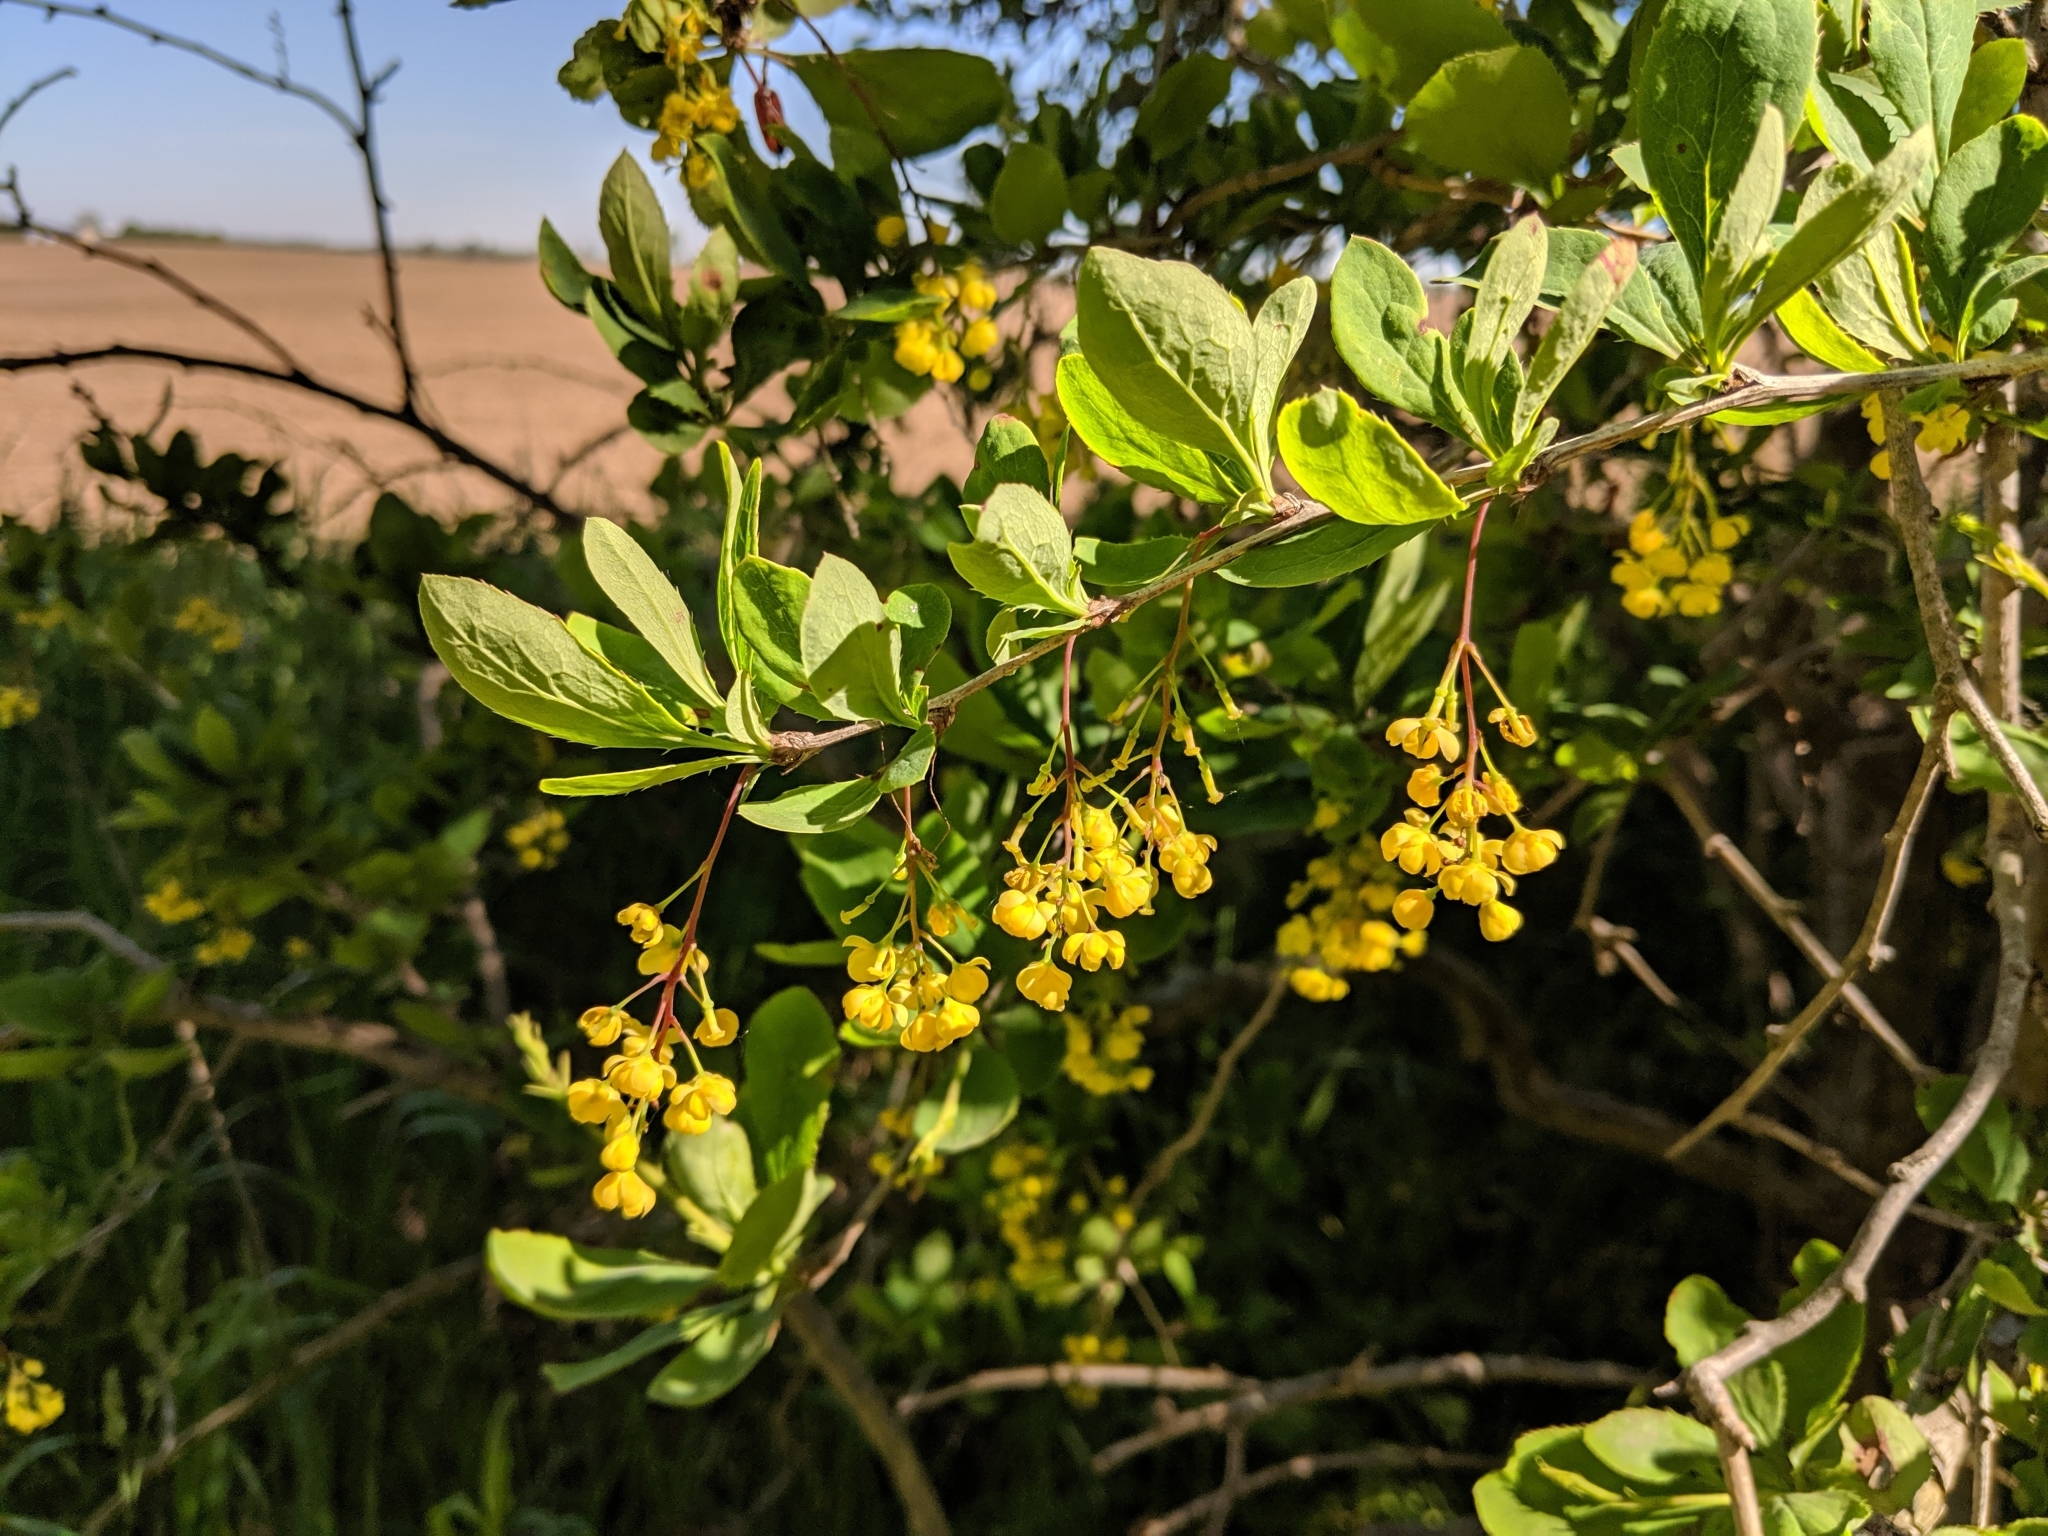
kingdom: Plantae
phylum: Tracheophyta
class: Magnoliopsida
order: Ranunculales
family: Berberidaceae
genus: Berberis
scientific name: Berberis vulgaris
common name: Barberry
